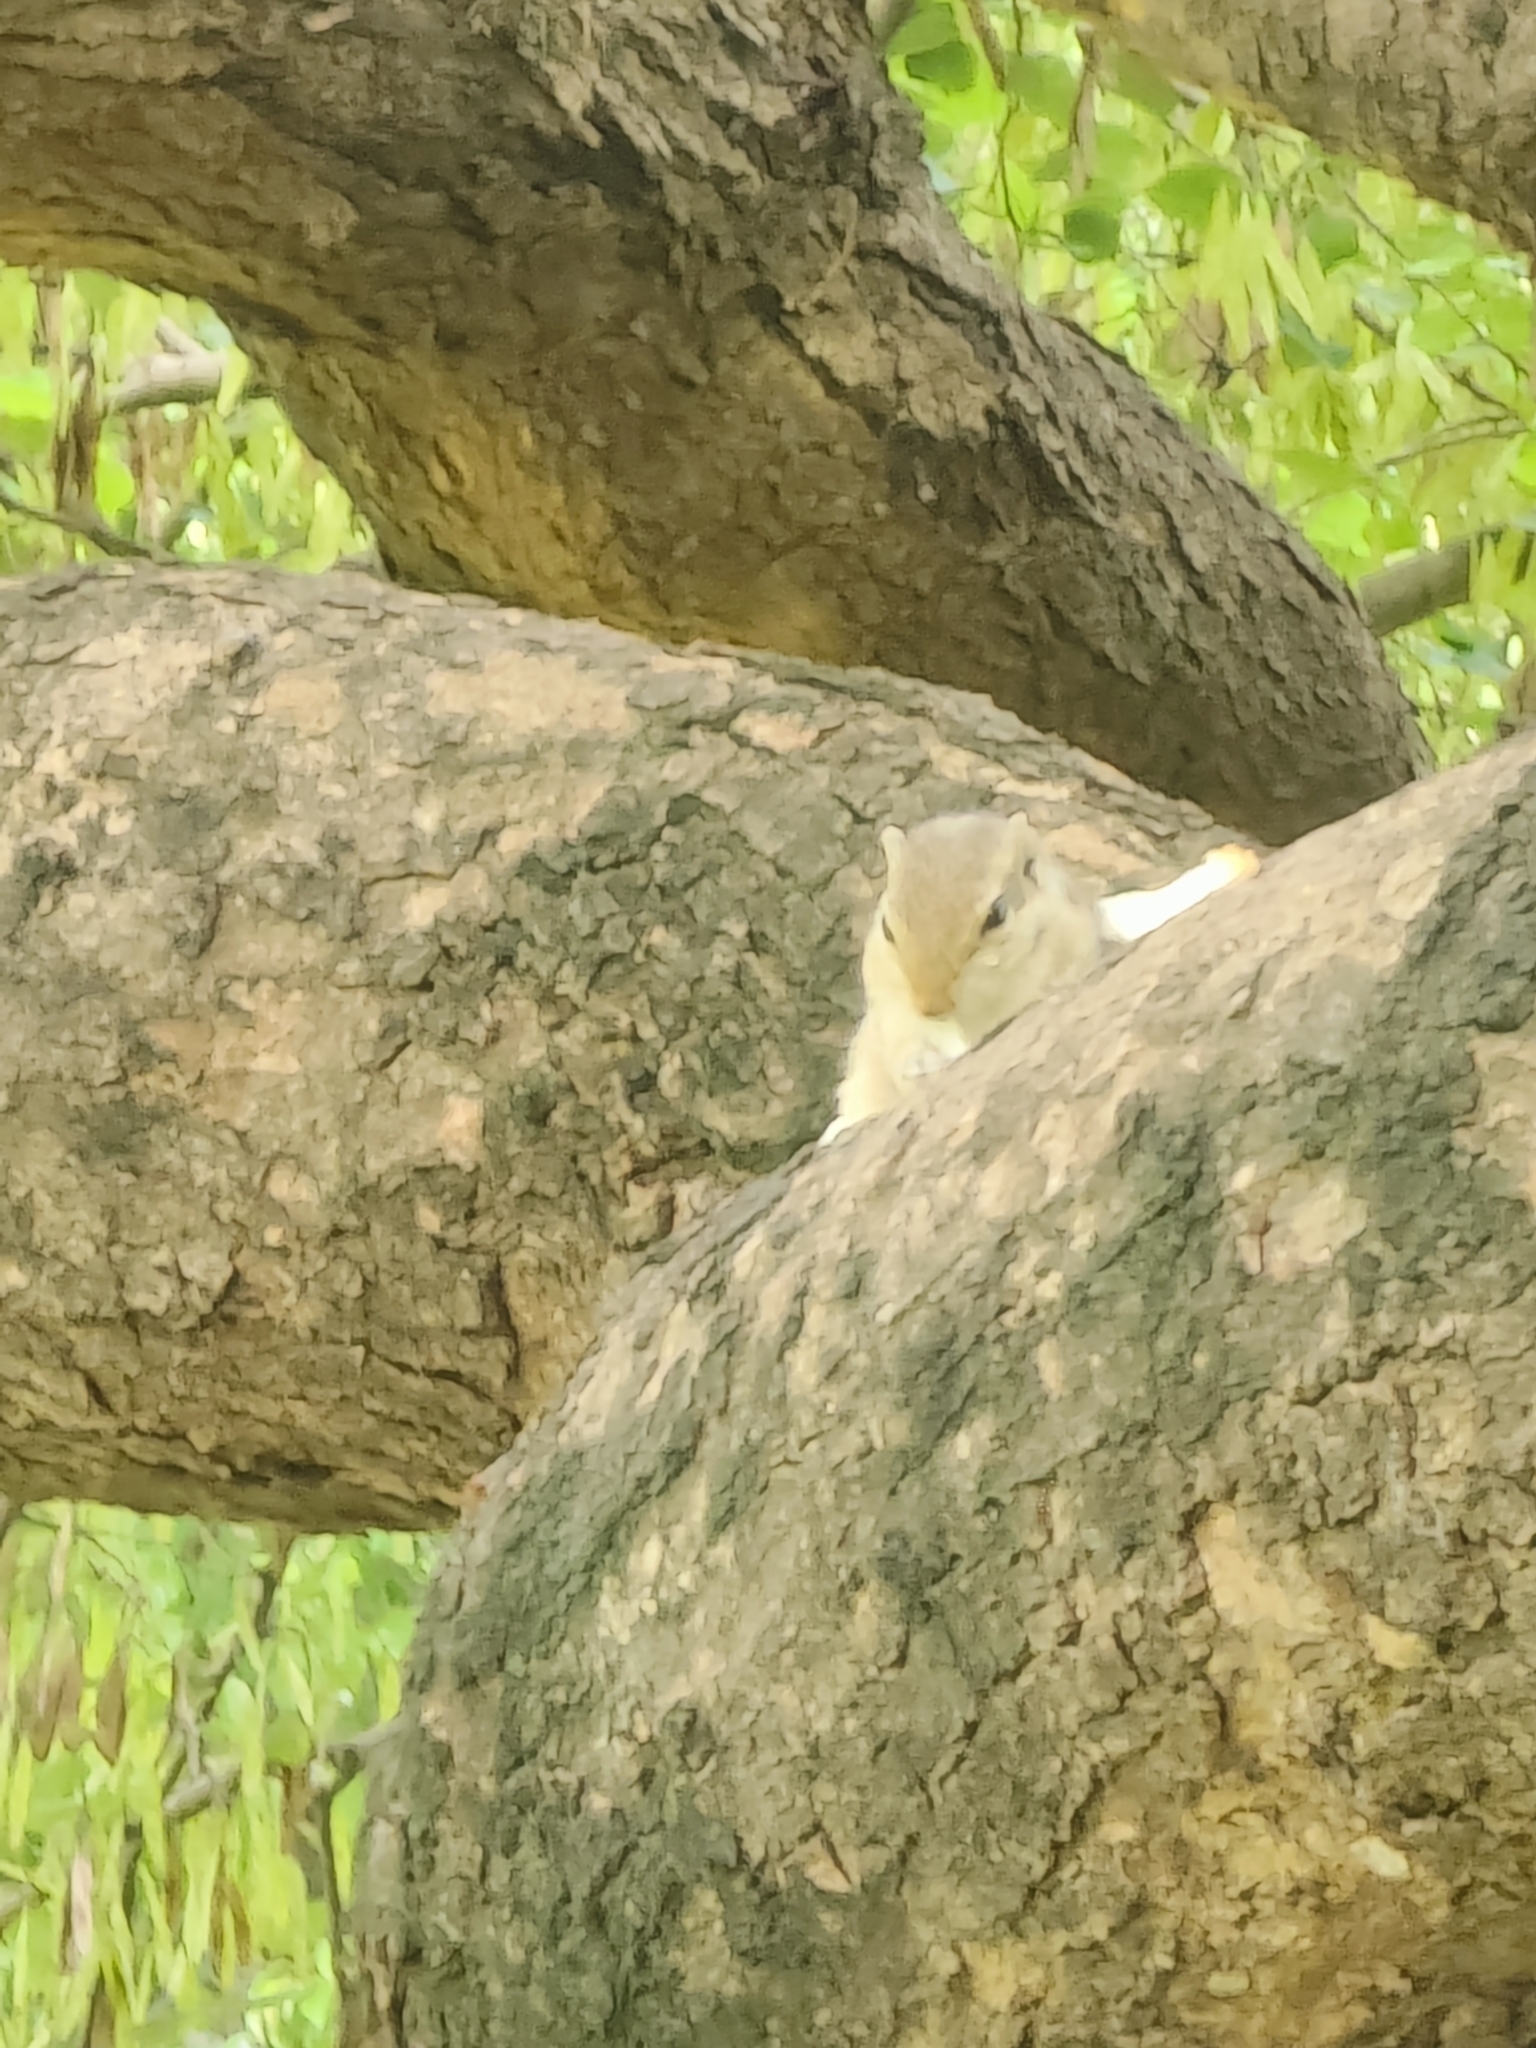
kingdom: Animalia
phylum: Chordata
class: Mammalia
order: Rodentia
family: Sciuridae
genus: Funambulus
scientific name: Funambulus pennantii
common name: Northern palm squirrel
